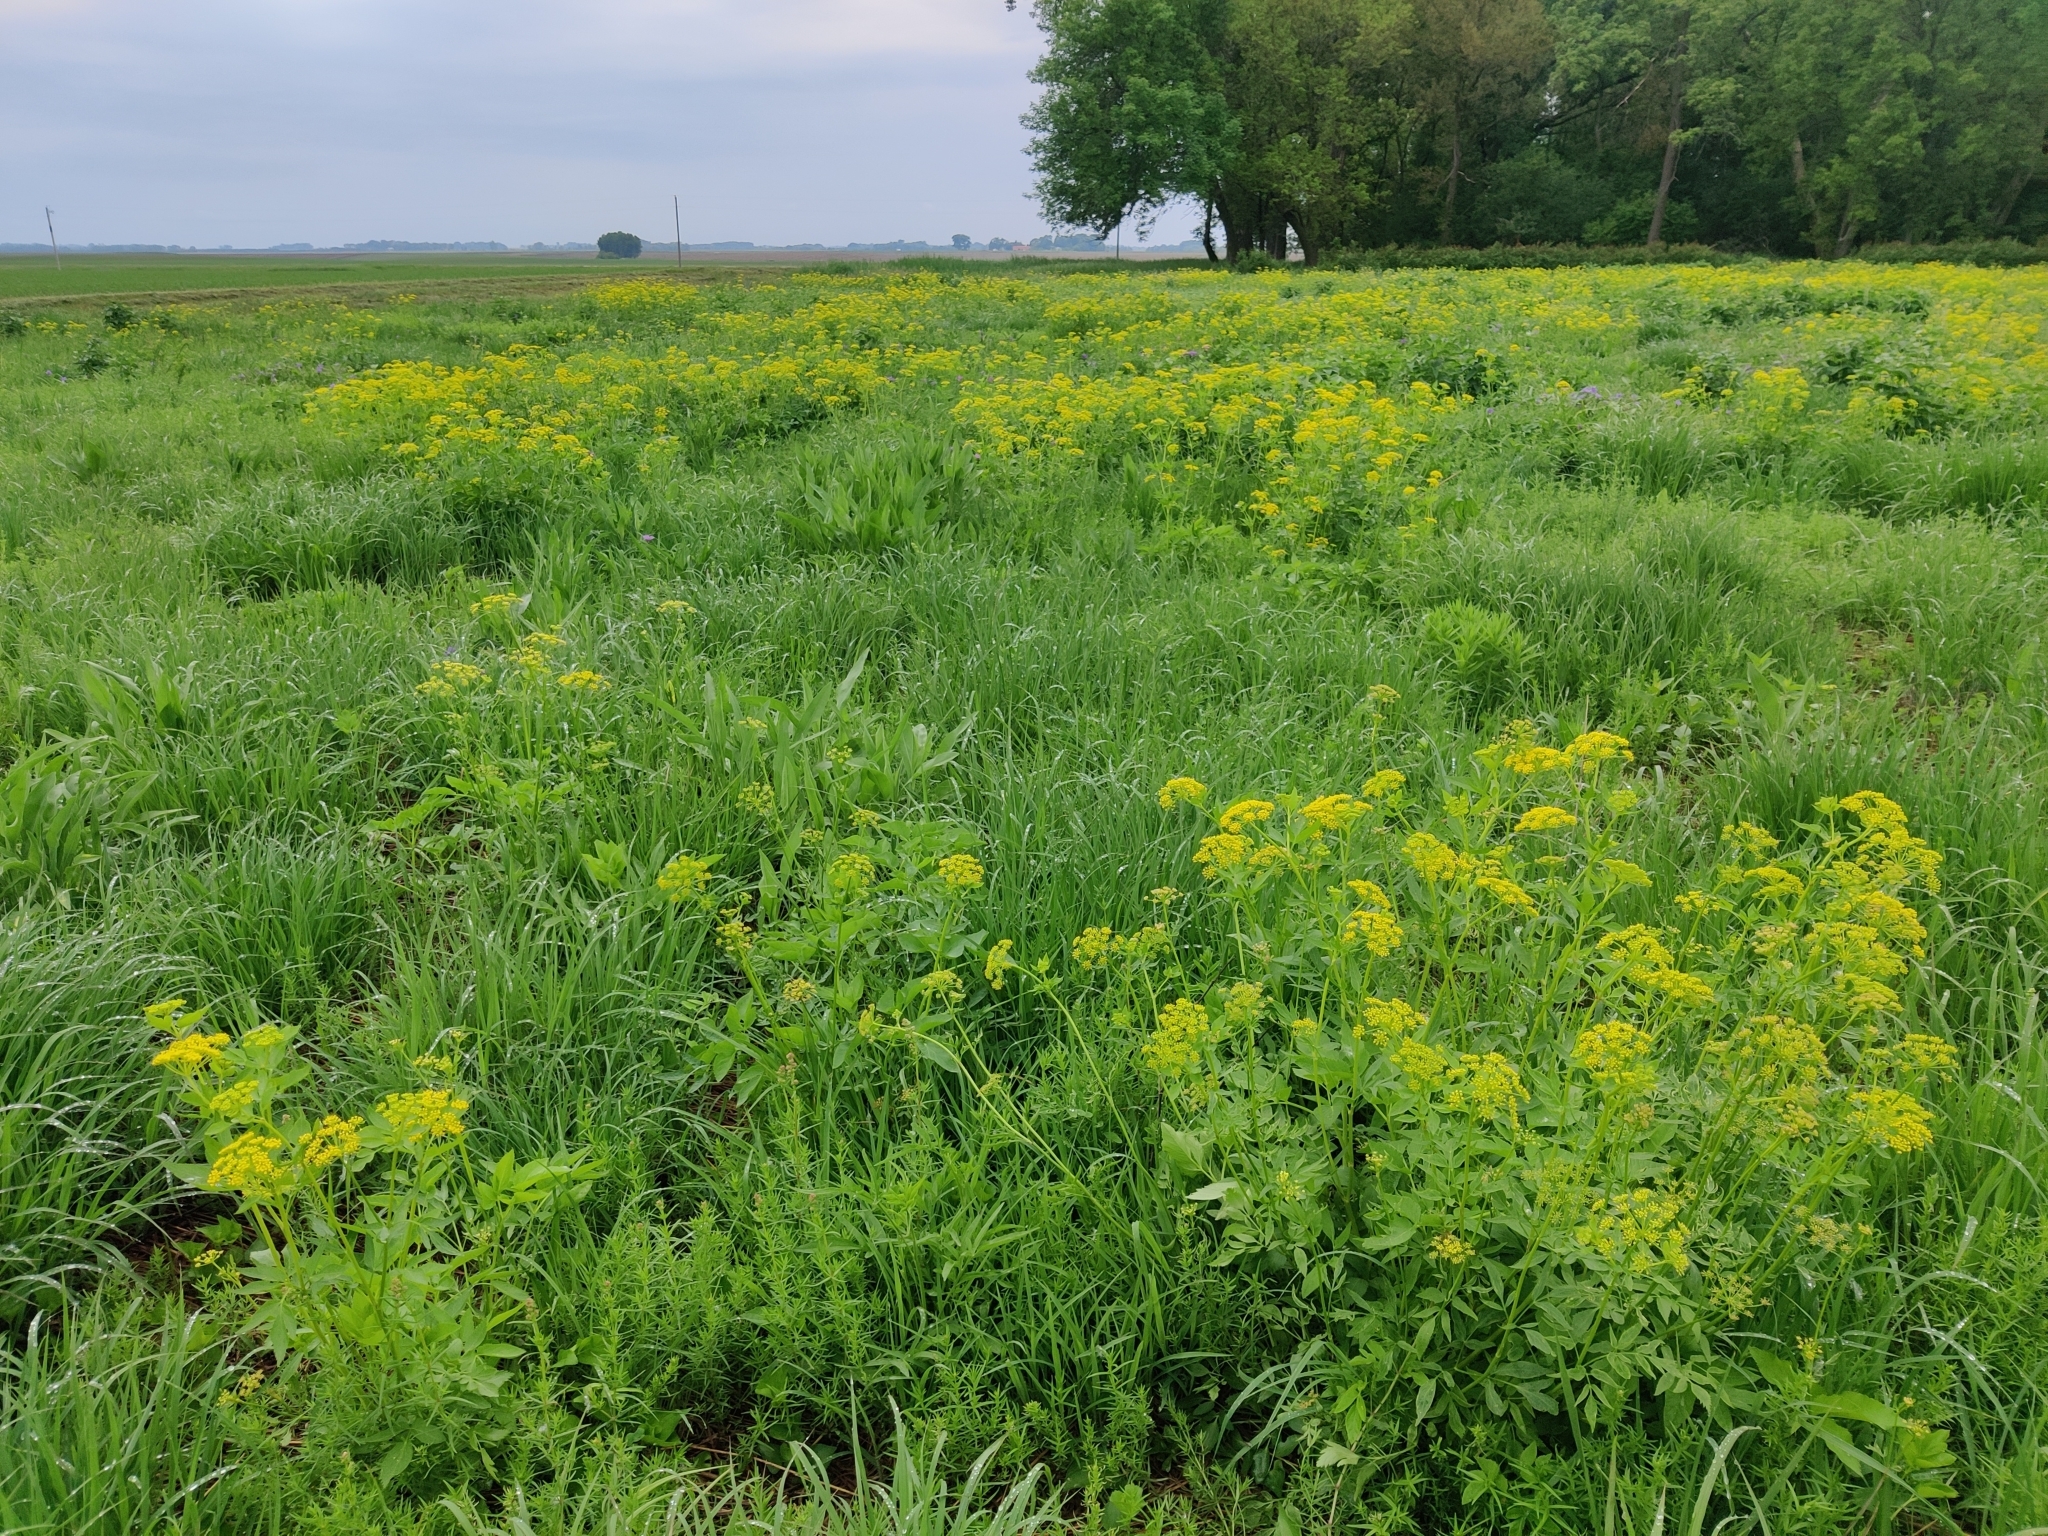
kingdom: Plantae
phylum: Tracheophyta
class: Magnoliopsida
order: Apiales
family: Apiaceae
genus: Zizia
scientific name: Zizia aurea
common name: Golden alexanders
